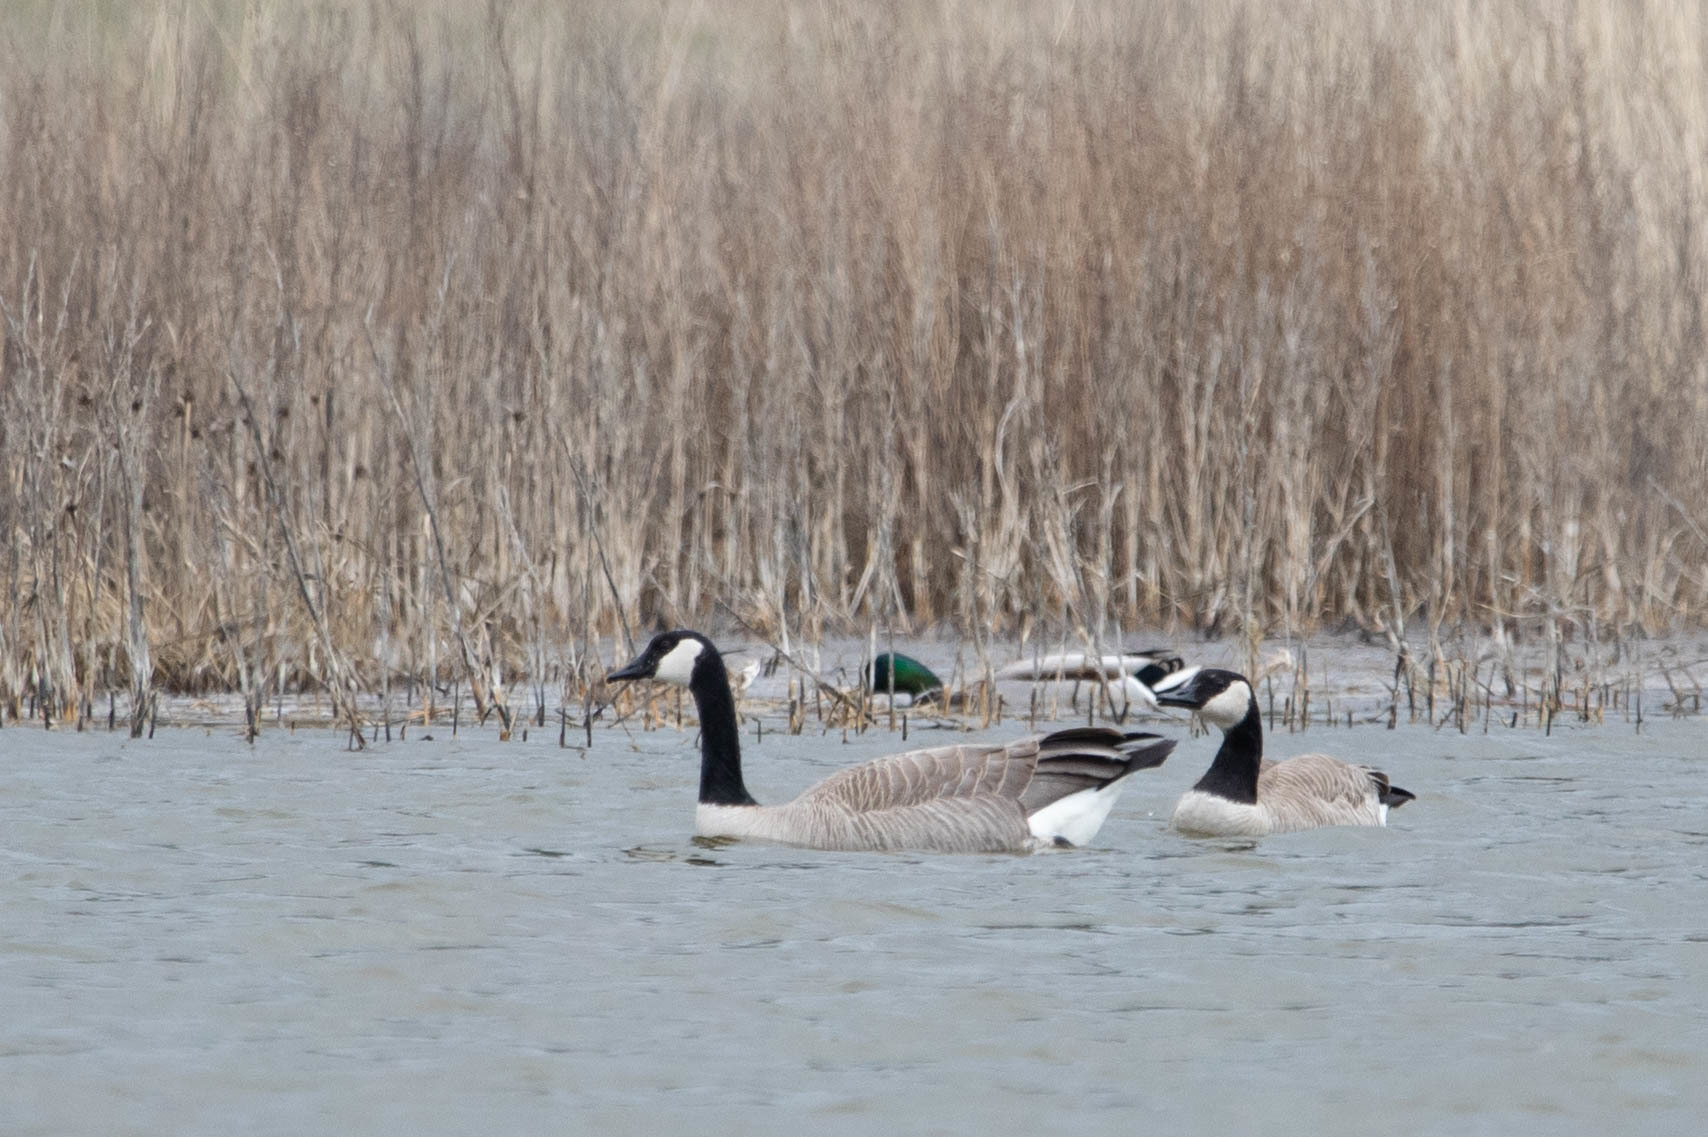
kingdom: Animalia
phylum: Chordata
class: Aves
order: Anseriformes
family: Anatidae
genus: Branta
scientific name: Branta canadensis
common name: Canada goose
